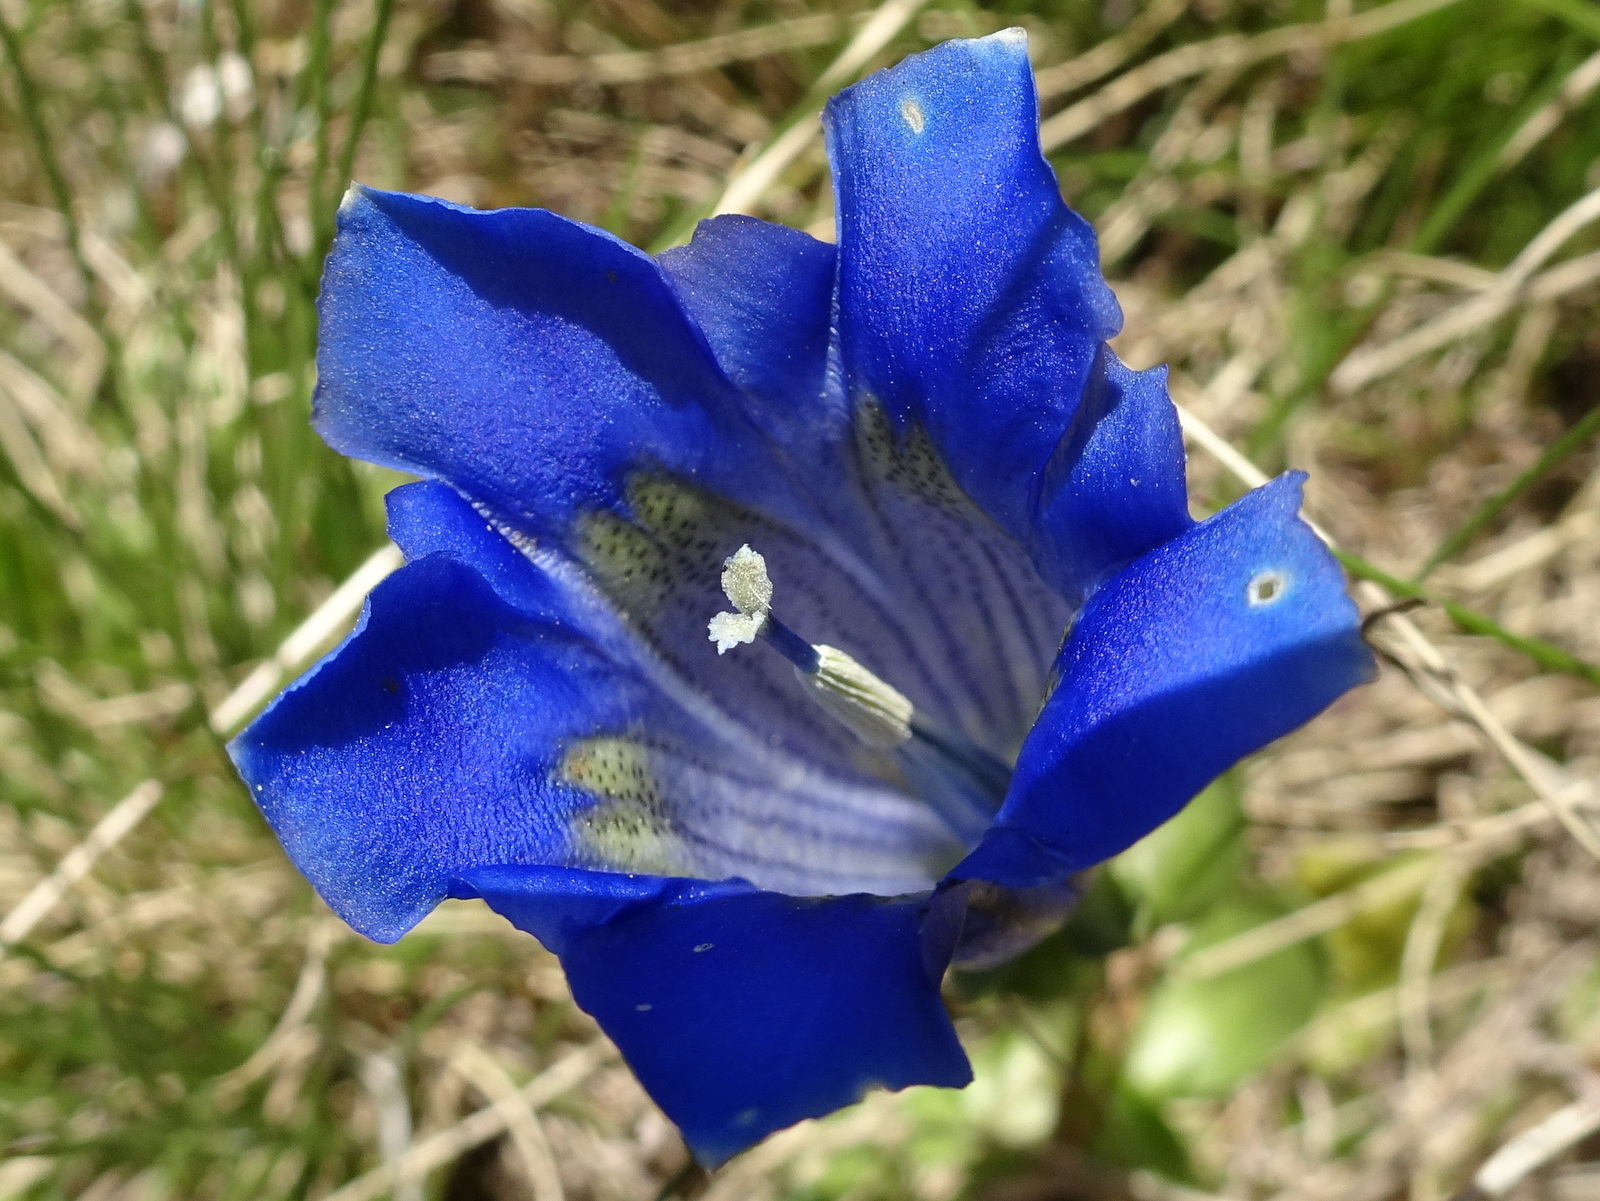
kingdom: Plantae
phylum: Tracheophyta
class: Magnoliopsida
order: Gentianales
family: Gentianaceae
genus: Gentiana
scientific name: Gentiana acaulis
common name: Trumpet gentian
